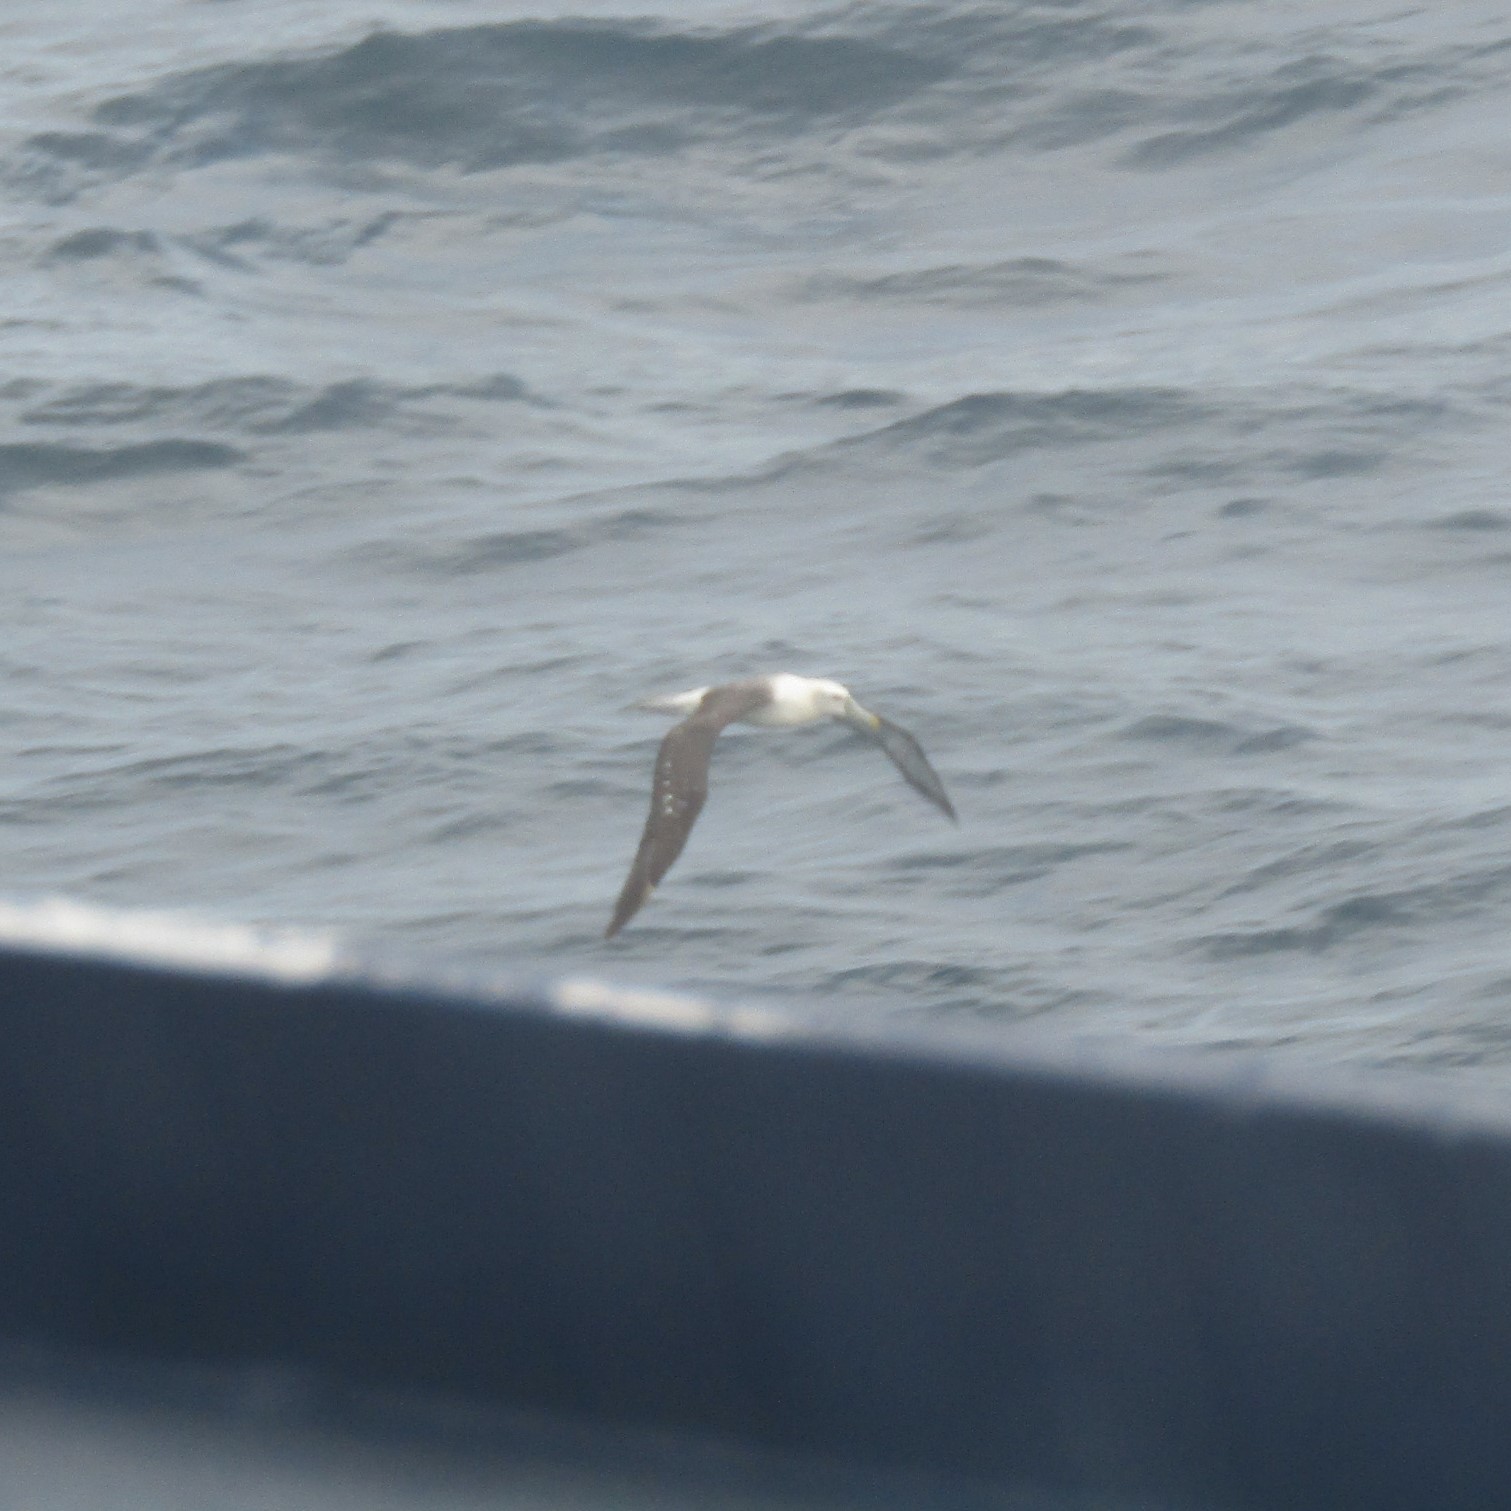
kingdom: Animalia
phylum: Chordata
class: Aves
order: Procellariiformes
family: Diomedeidae
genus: Thalassarche
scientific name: Thalassarche cauta
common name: Shy albatross
